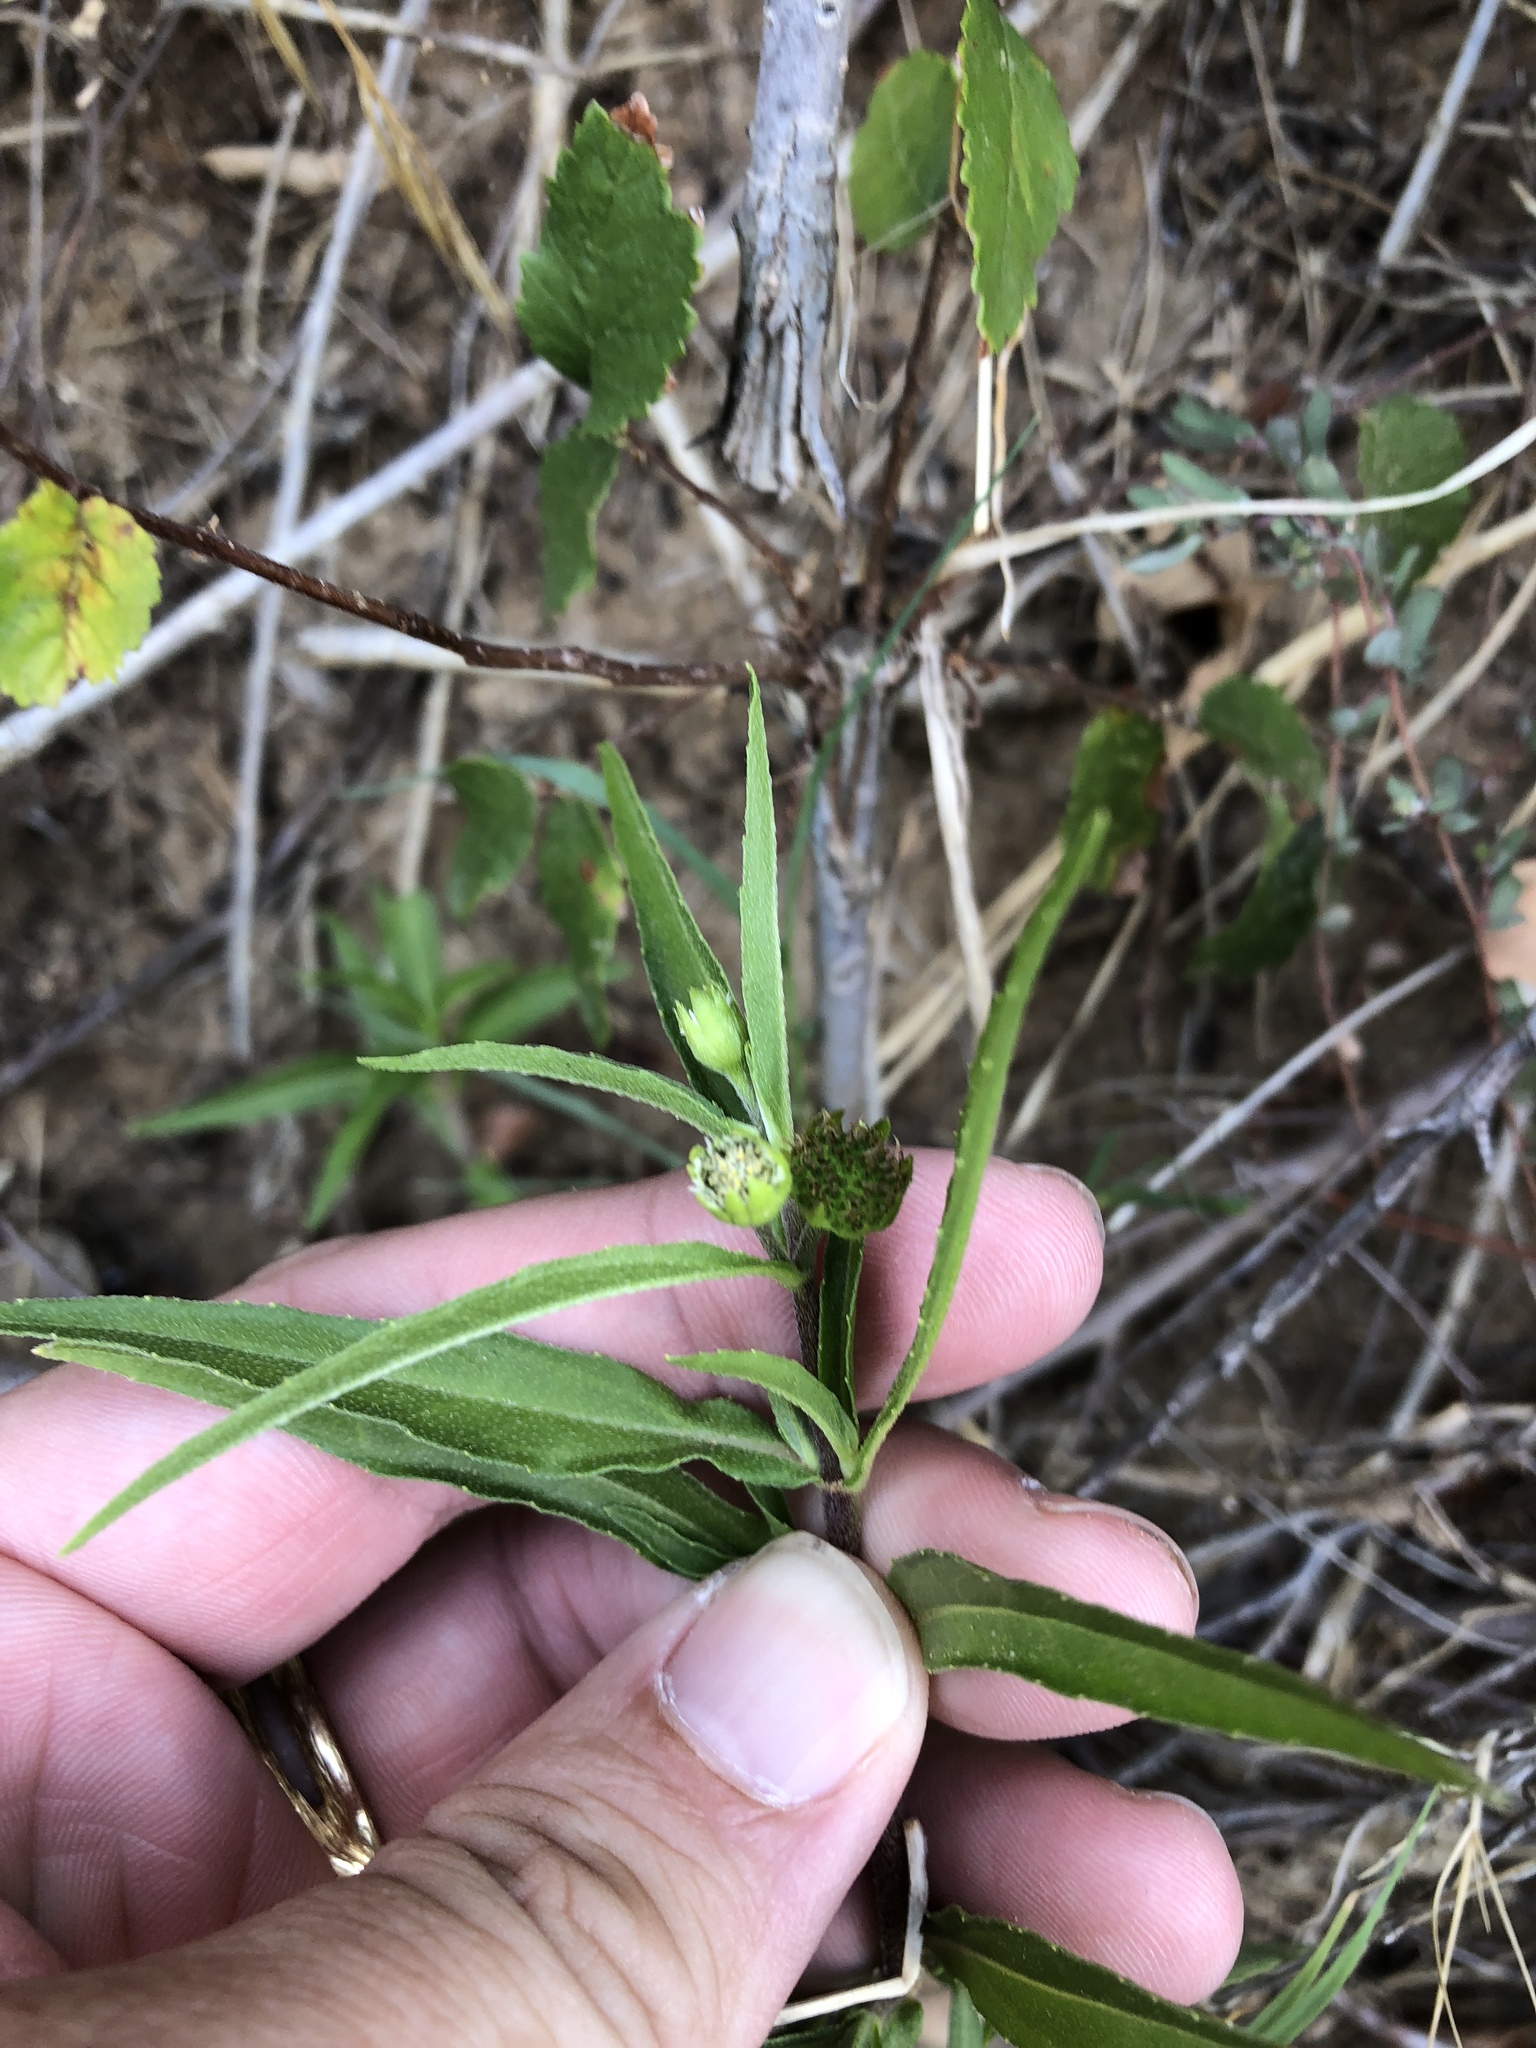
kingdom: Plantae
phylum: Tracheophyta
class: Magnoliopsida
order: Asterales
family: Asteraceae
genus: Eclipta
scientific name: Eclipta prostrata
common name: False daisy
